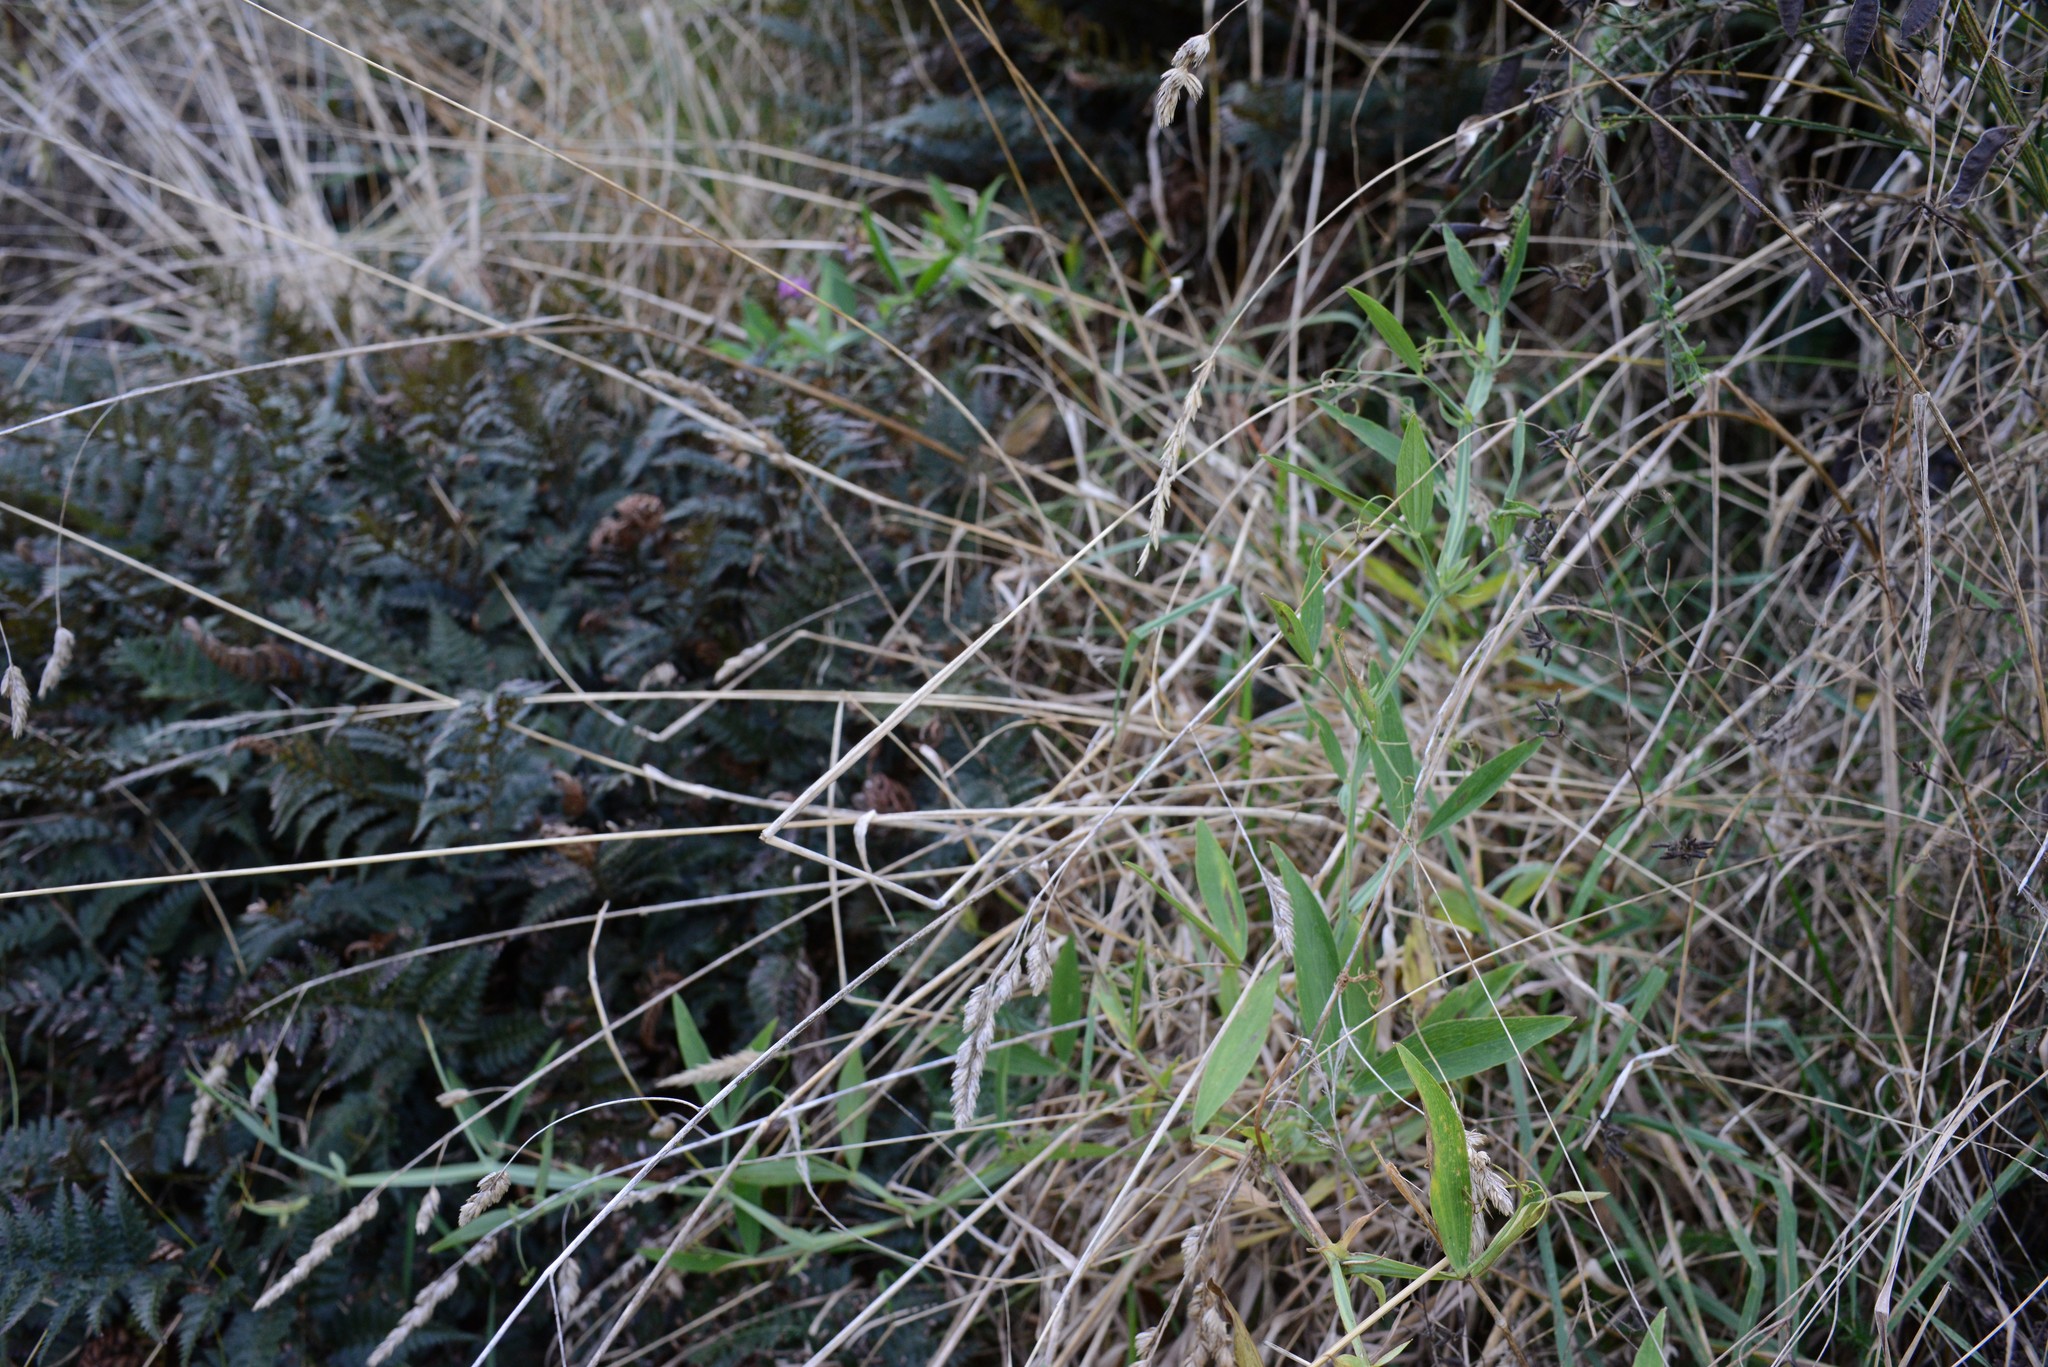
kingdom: Plantae
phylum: Tracheophyta
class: Magnoliopsida
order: Fabales
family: Fabaceae
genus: Lathyrus
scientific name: Lathyrus tingitanus
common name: Tangier pea
